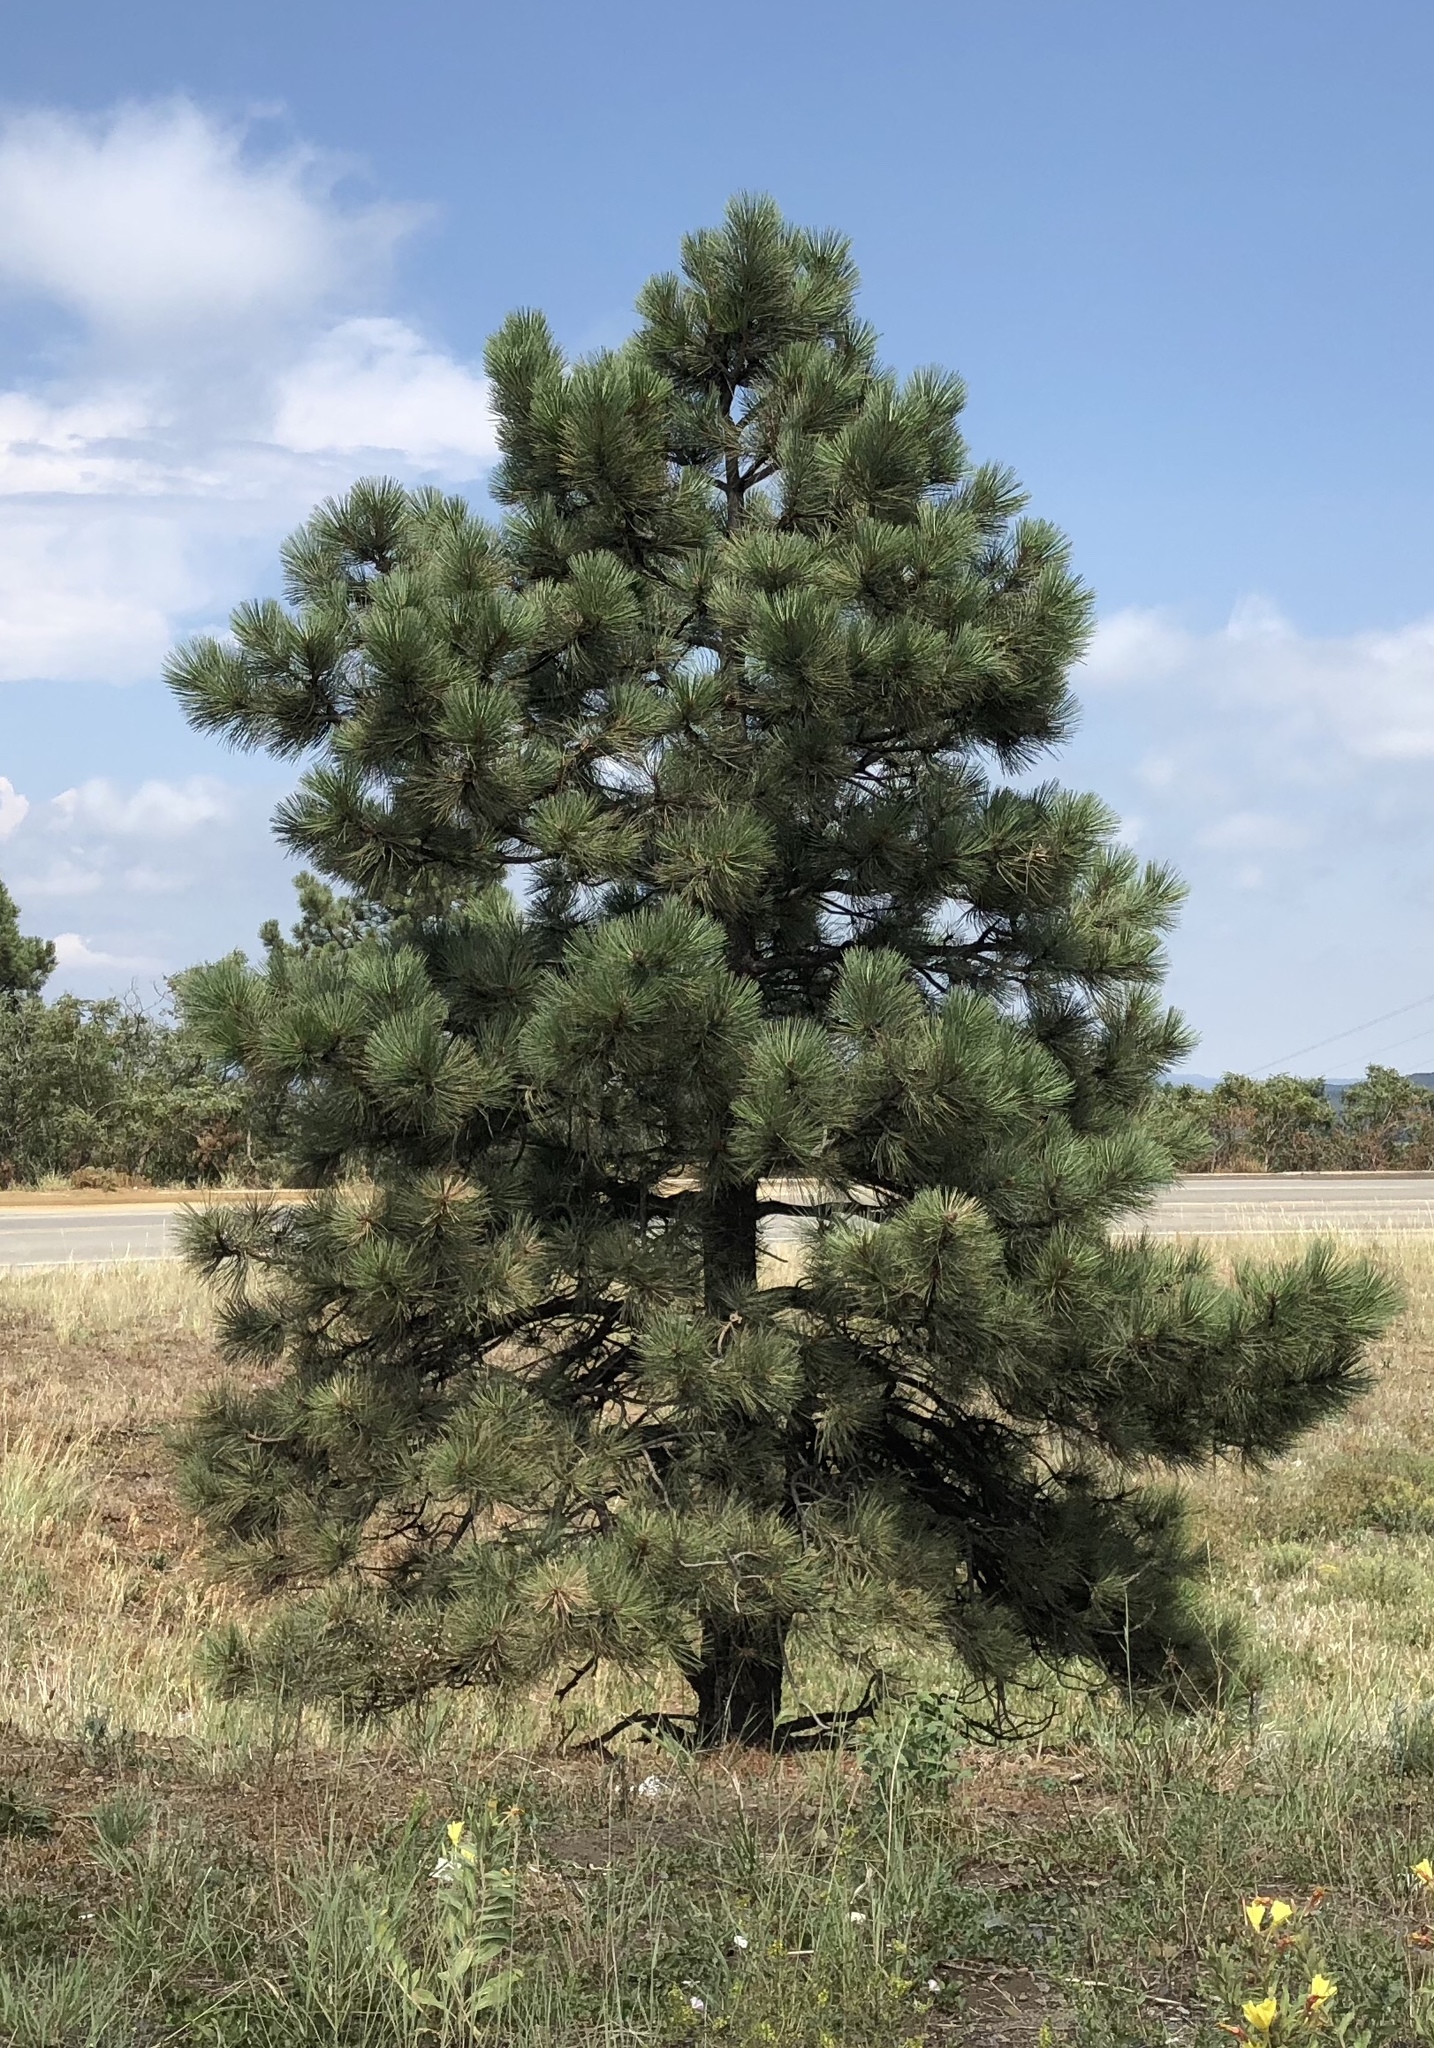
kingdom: Plantae
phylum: Tracheophyta
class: Pinopsida
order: Pinales
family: Pinaceae
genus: Pinus
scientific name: Pinus ponderosa
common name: Western yellow-pine
